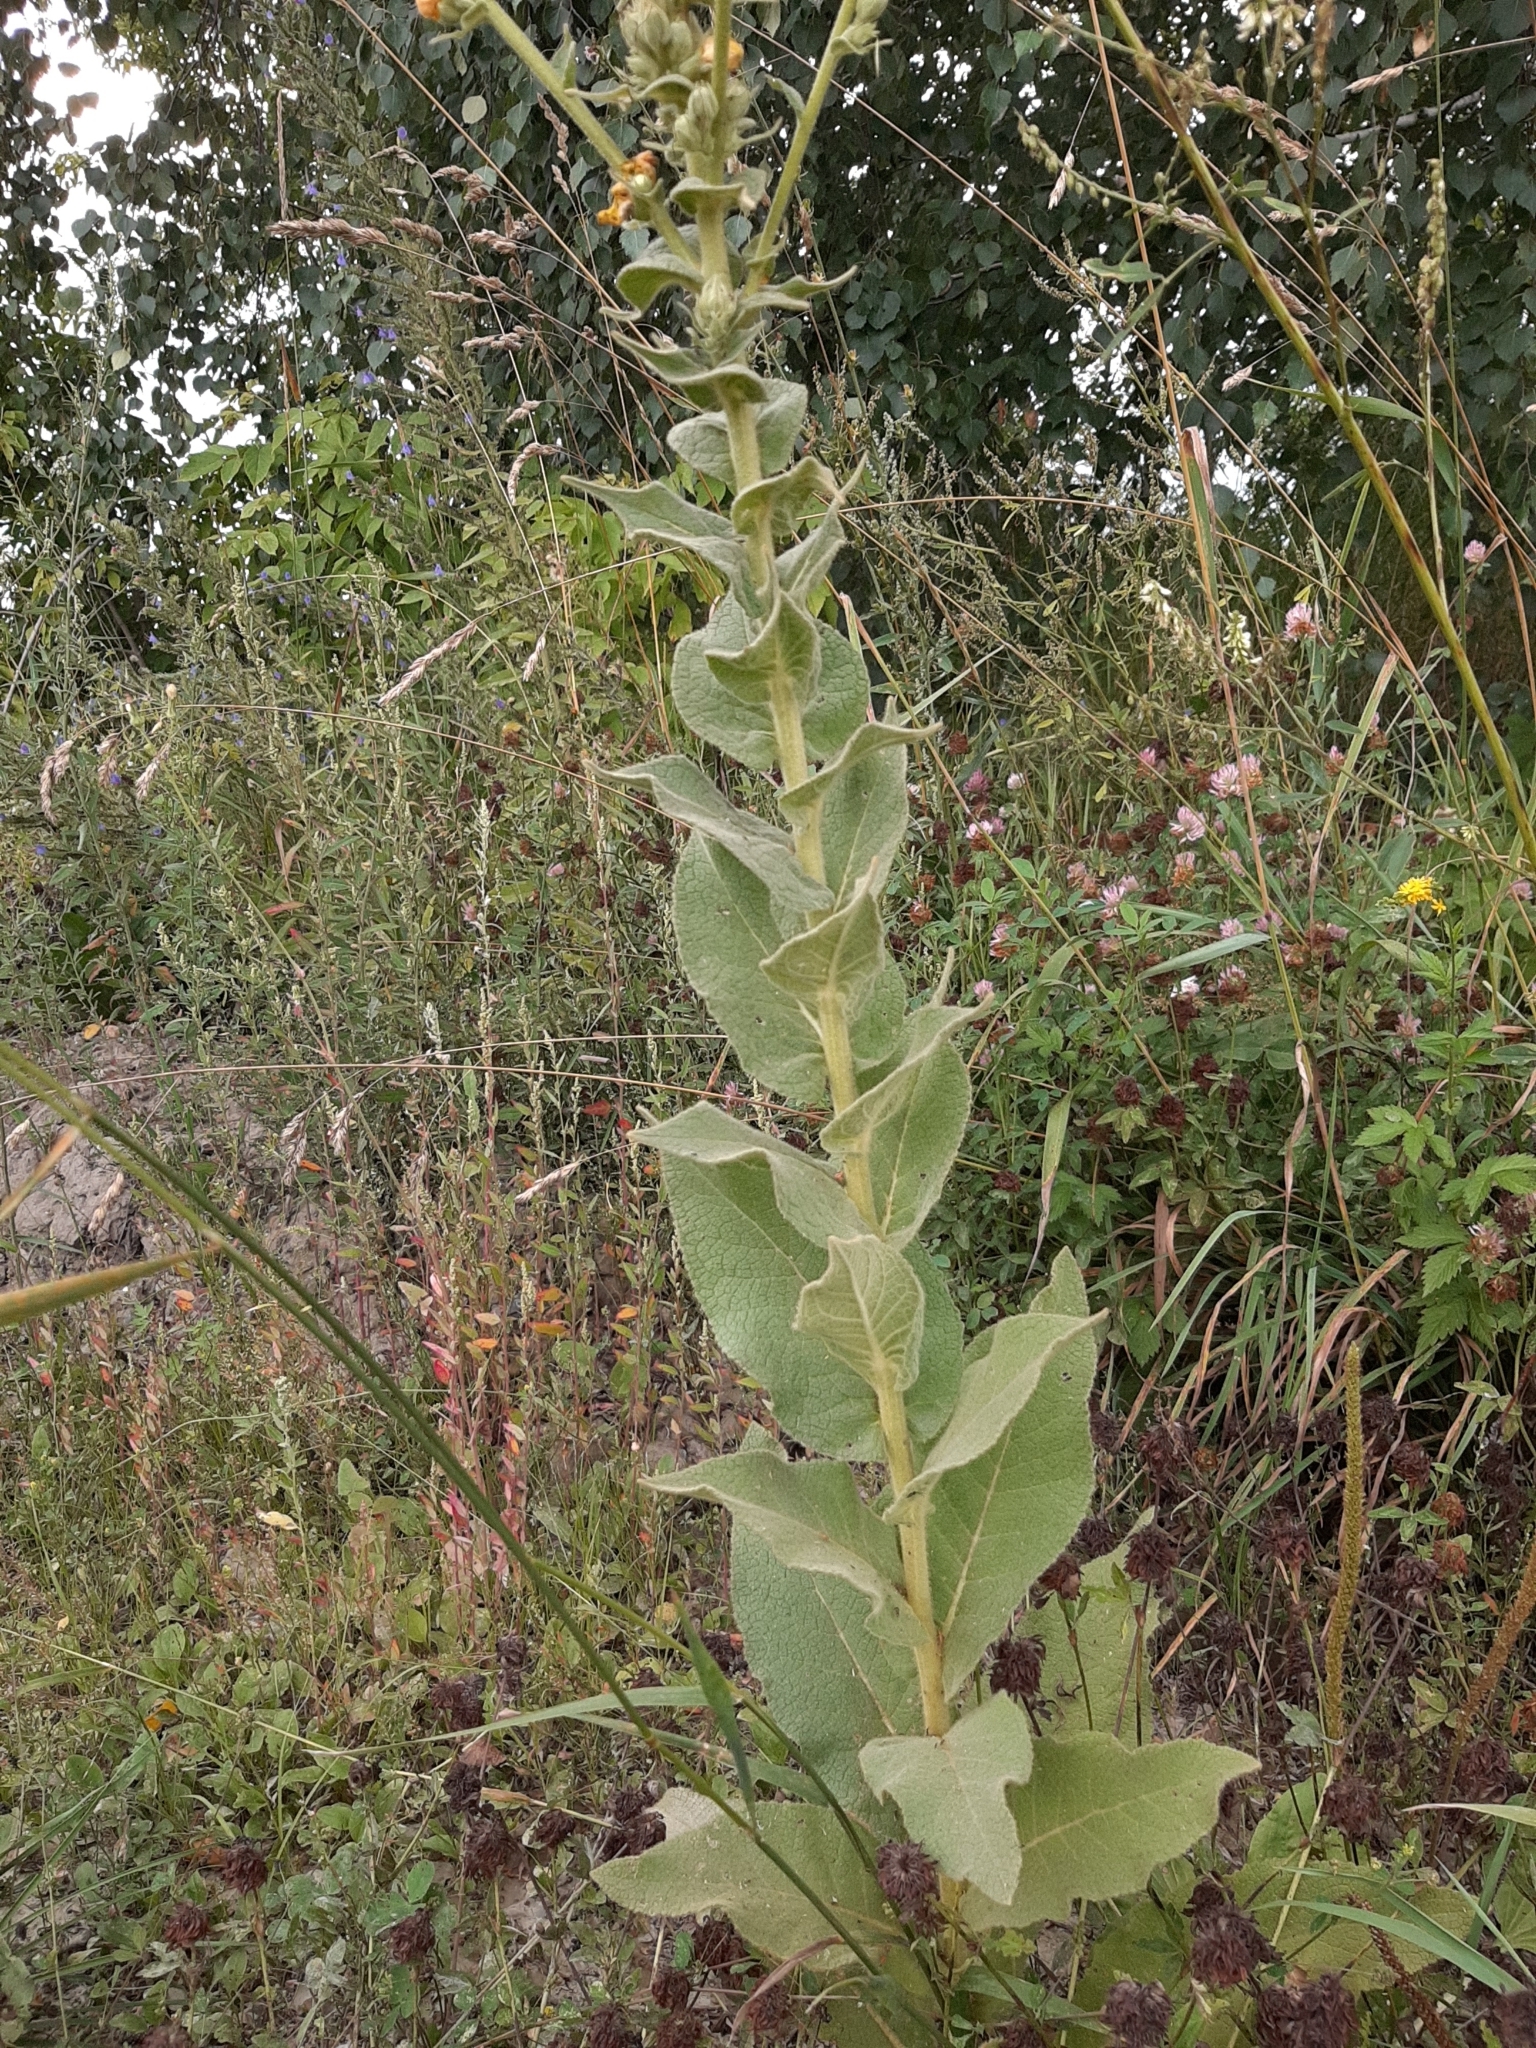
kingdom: Plantae
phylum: Tracheophyta
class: Magnoliopsida
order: Lamiales
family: Scrophulariaceae
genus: Verbascum
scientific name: Verbascum phlomoides
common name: Orange mullein
